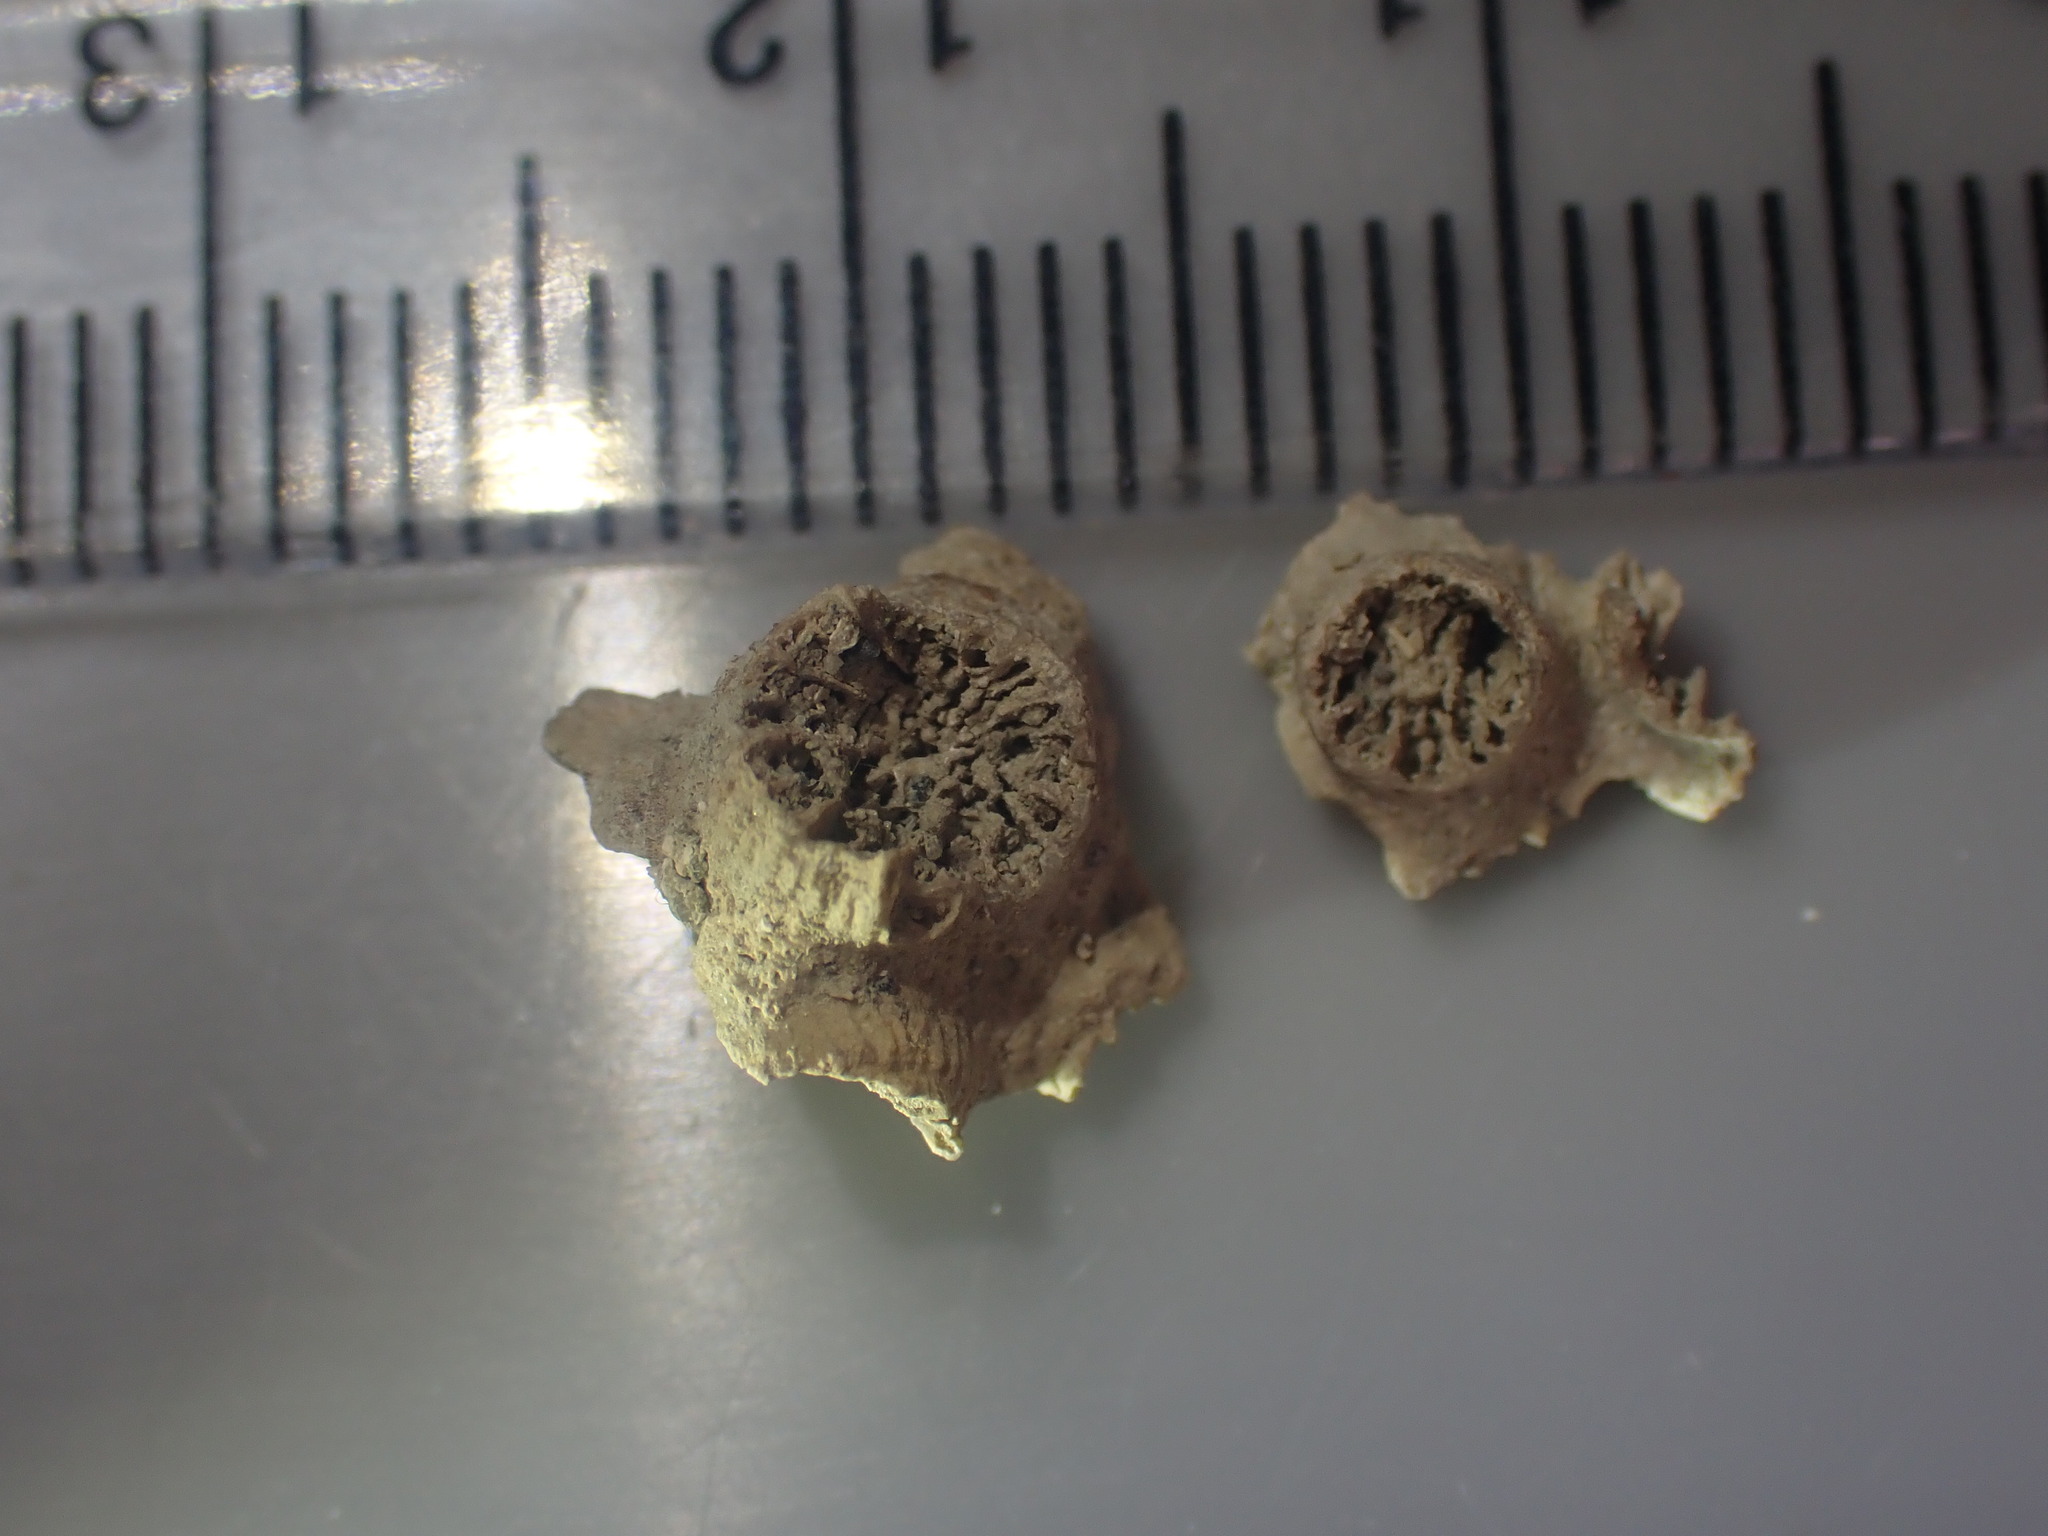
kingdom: Animalia
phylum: Cnidaria
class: Anthozoa
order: Scleractinia
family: Rhizangiidae
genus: Culicia
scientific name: Culicia rubeola
